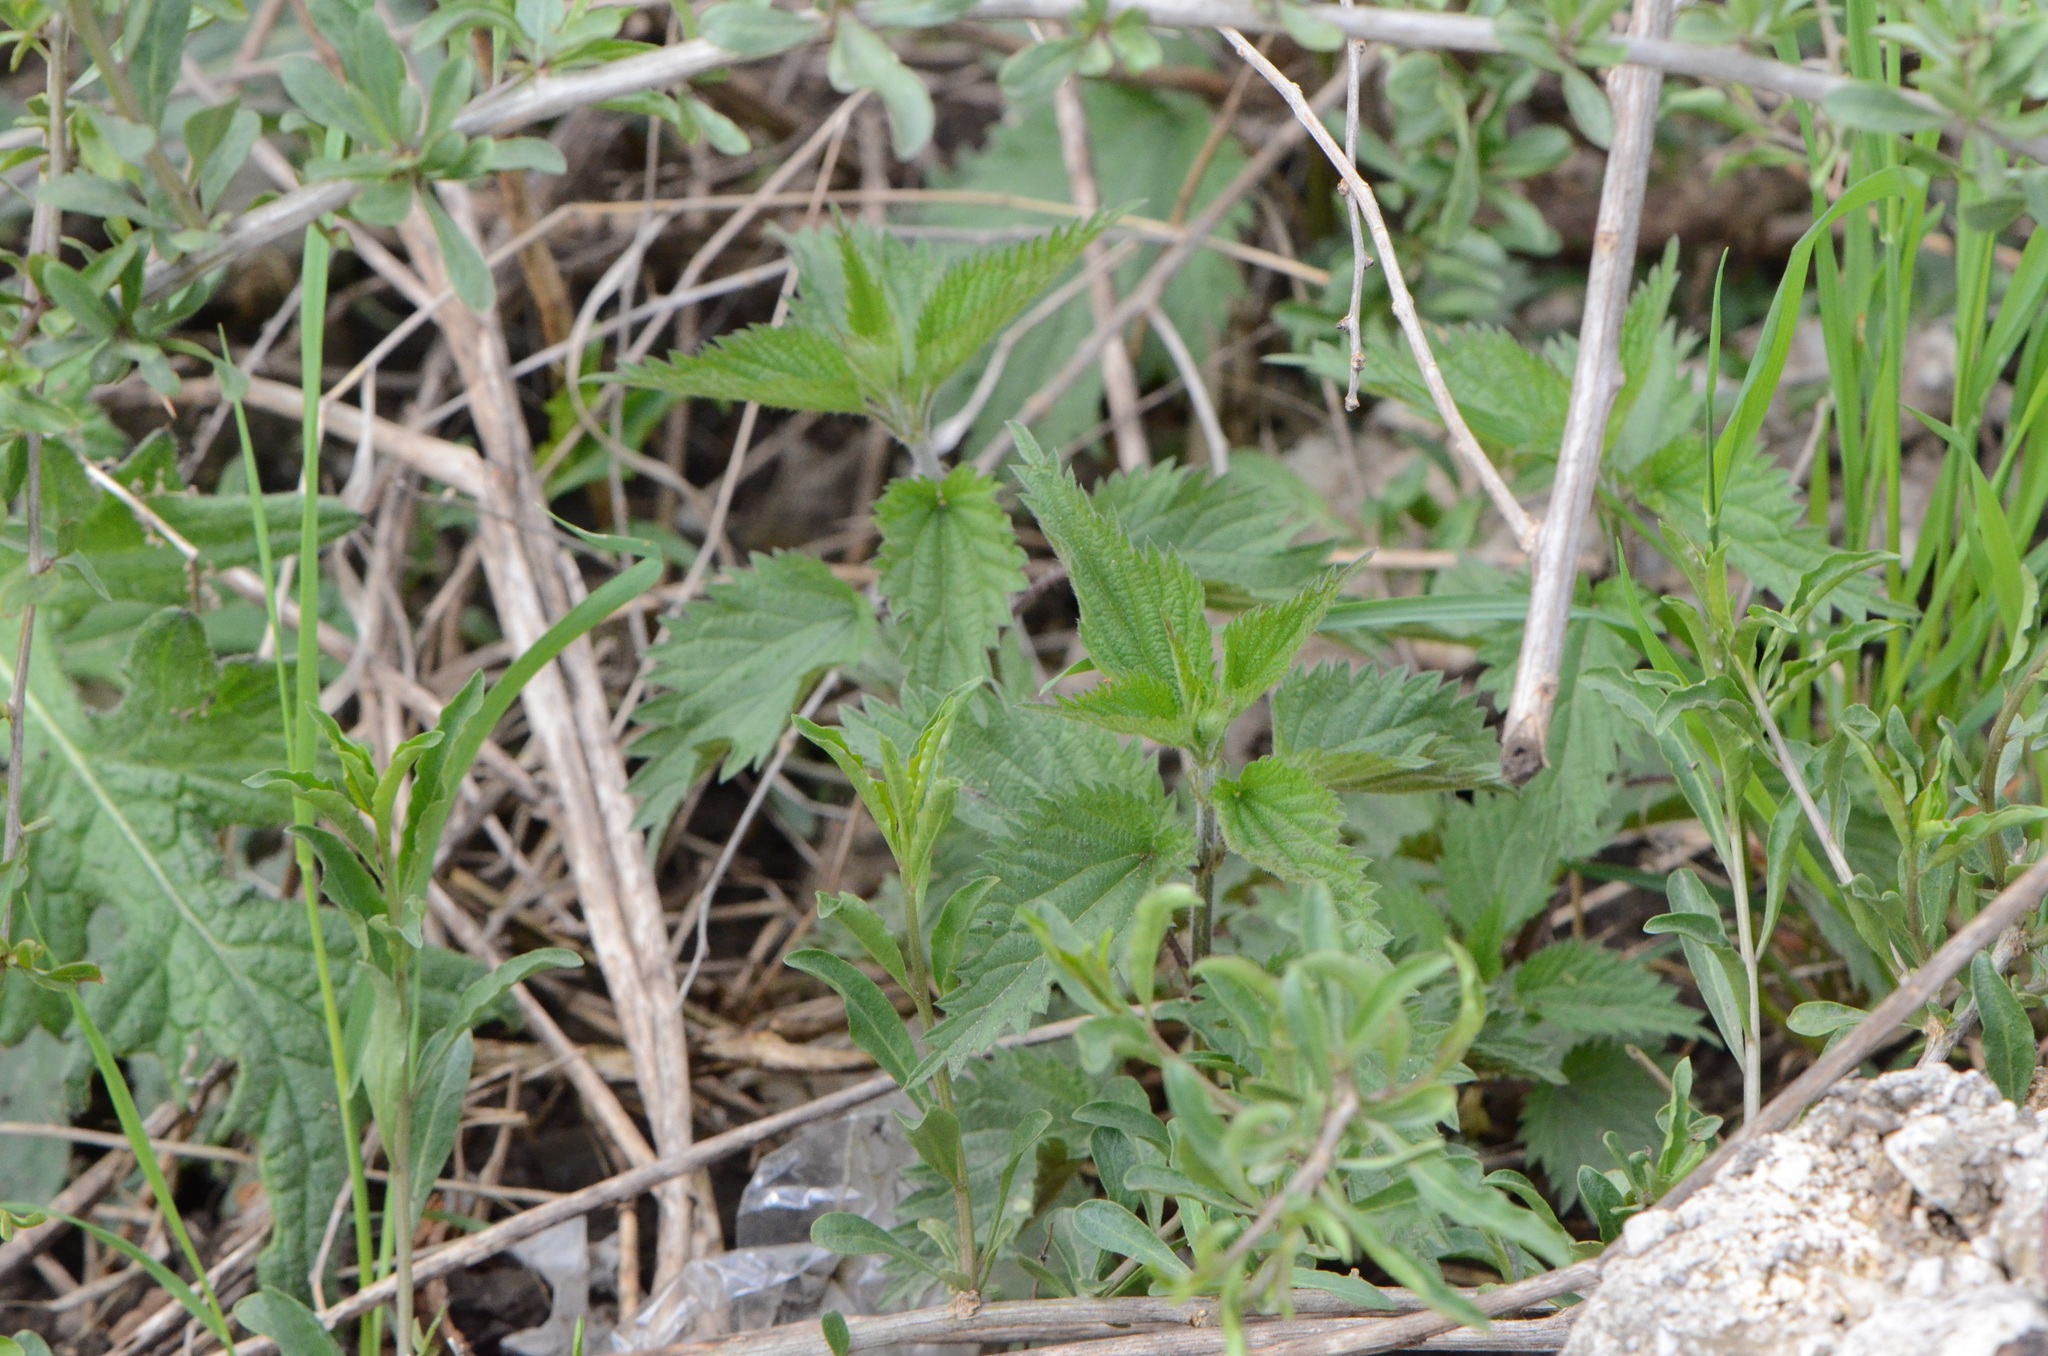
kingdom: Plantae
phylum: Tracheophyta
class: Magnoliopsida
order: Rosales
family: Urticaceae
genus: Urtica
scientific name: Urtica dioica
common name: Common nettle
